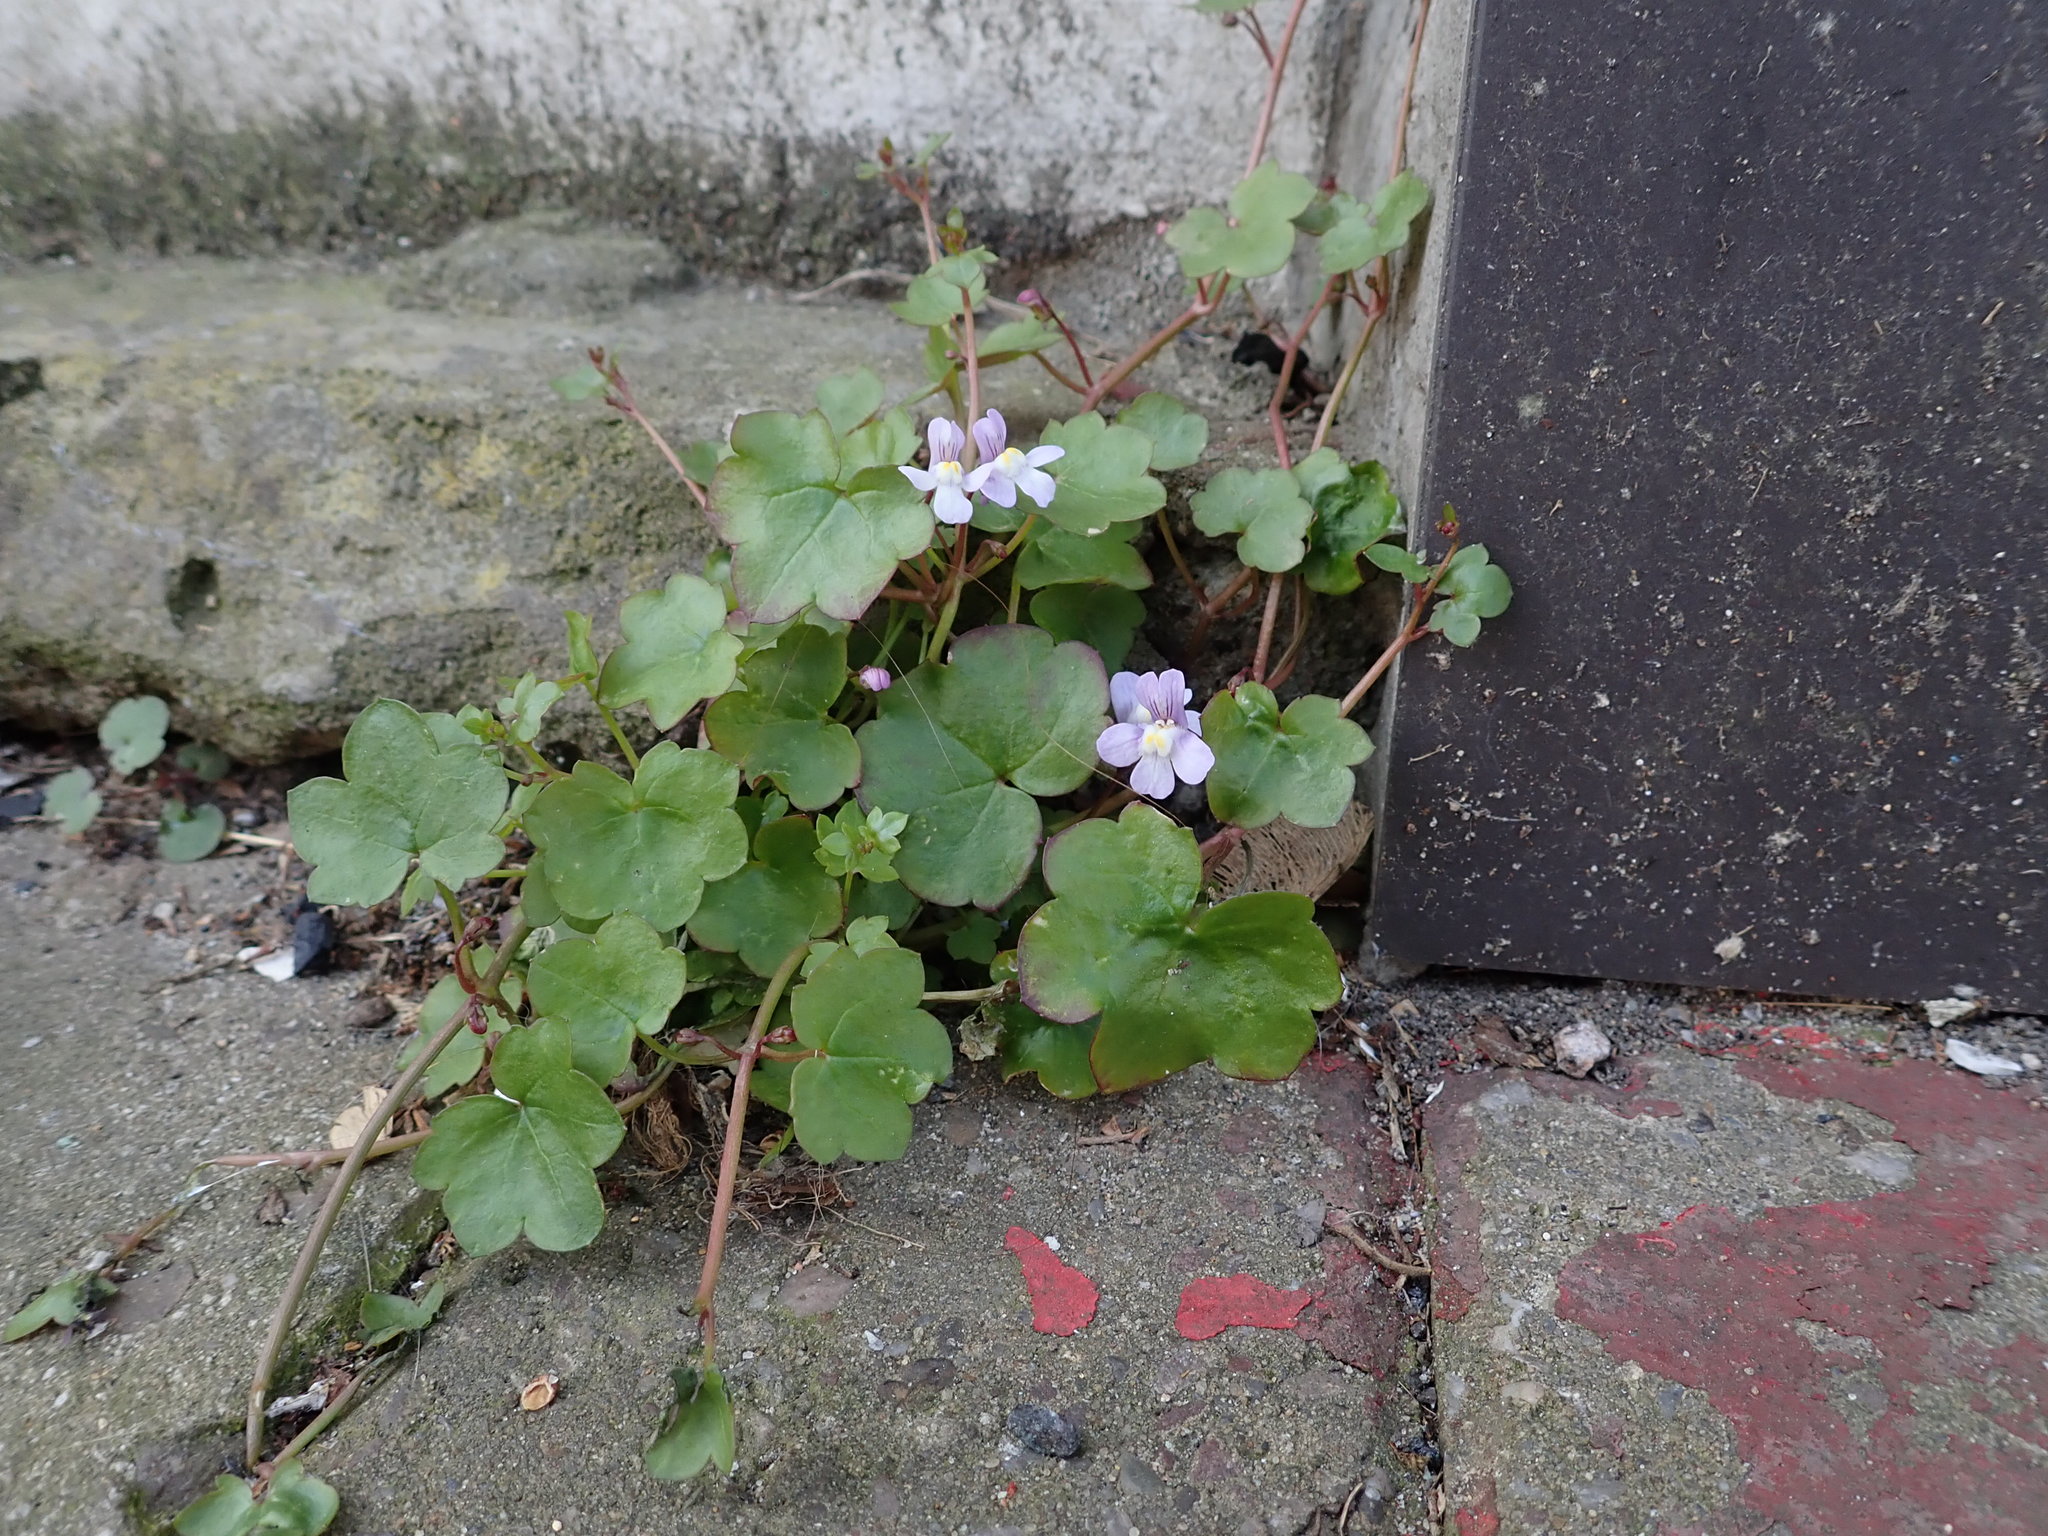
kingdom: Plantae
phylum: Tracheophyta
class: Magnoliopsida
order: Lamiales
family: Plantaginaceae
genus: Cymbalaria
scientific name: Cymbalaria muralis
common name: Ivy-leaved toadflax
